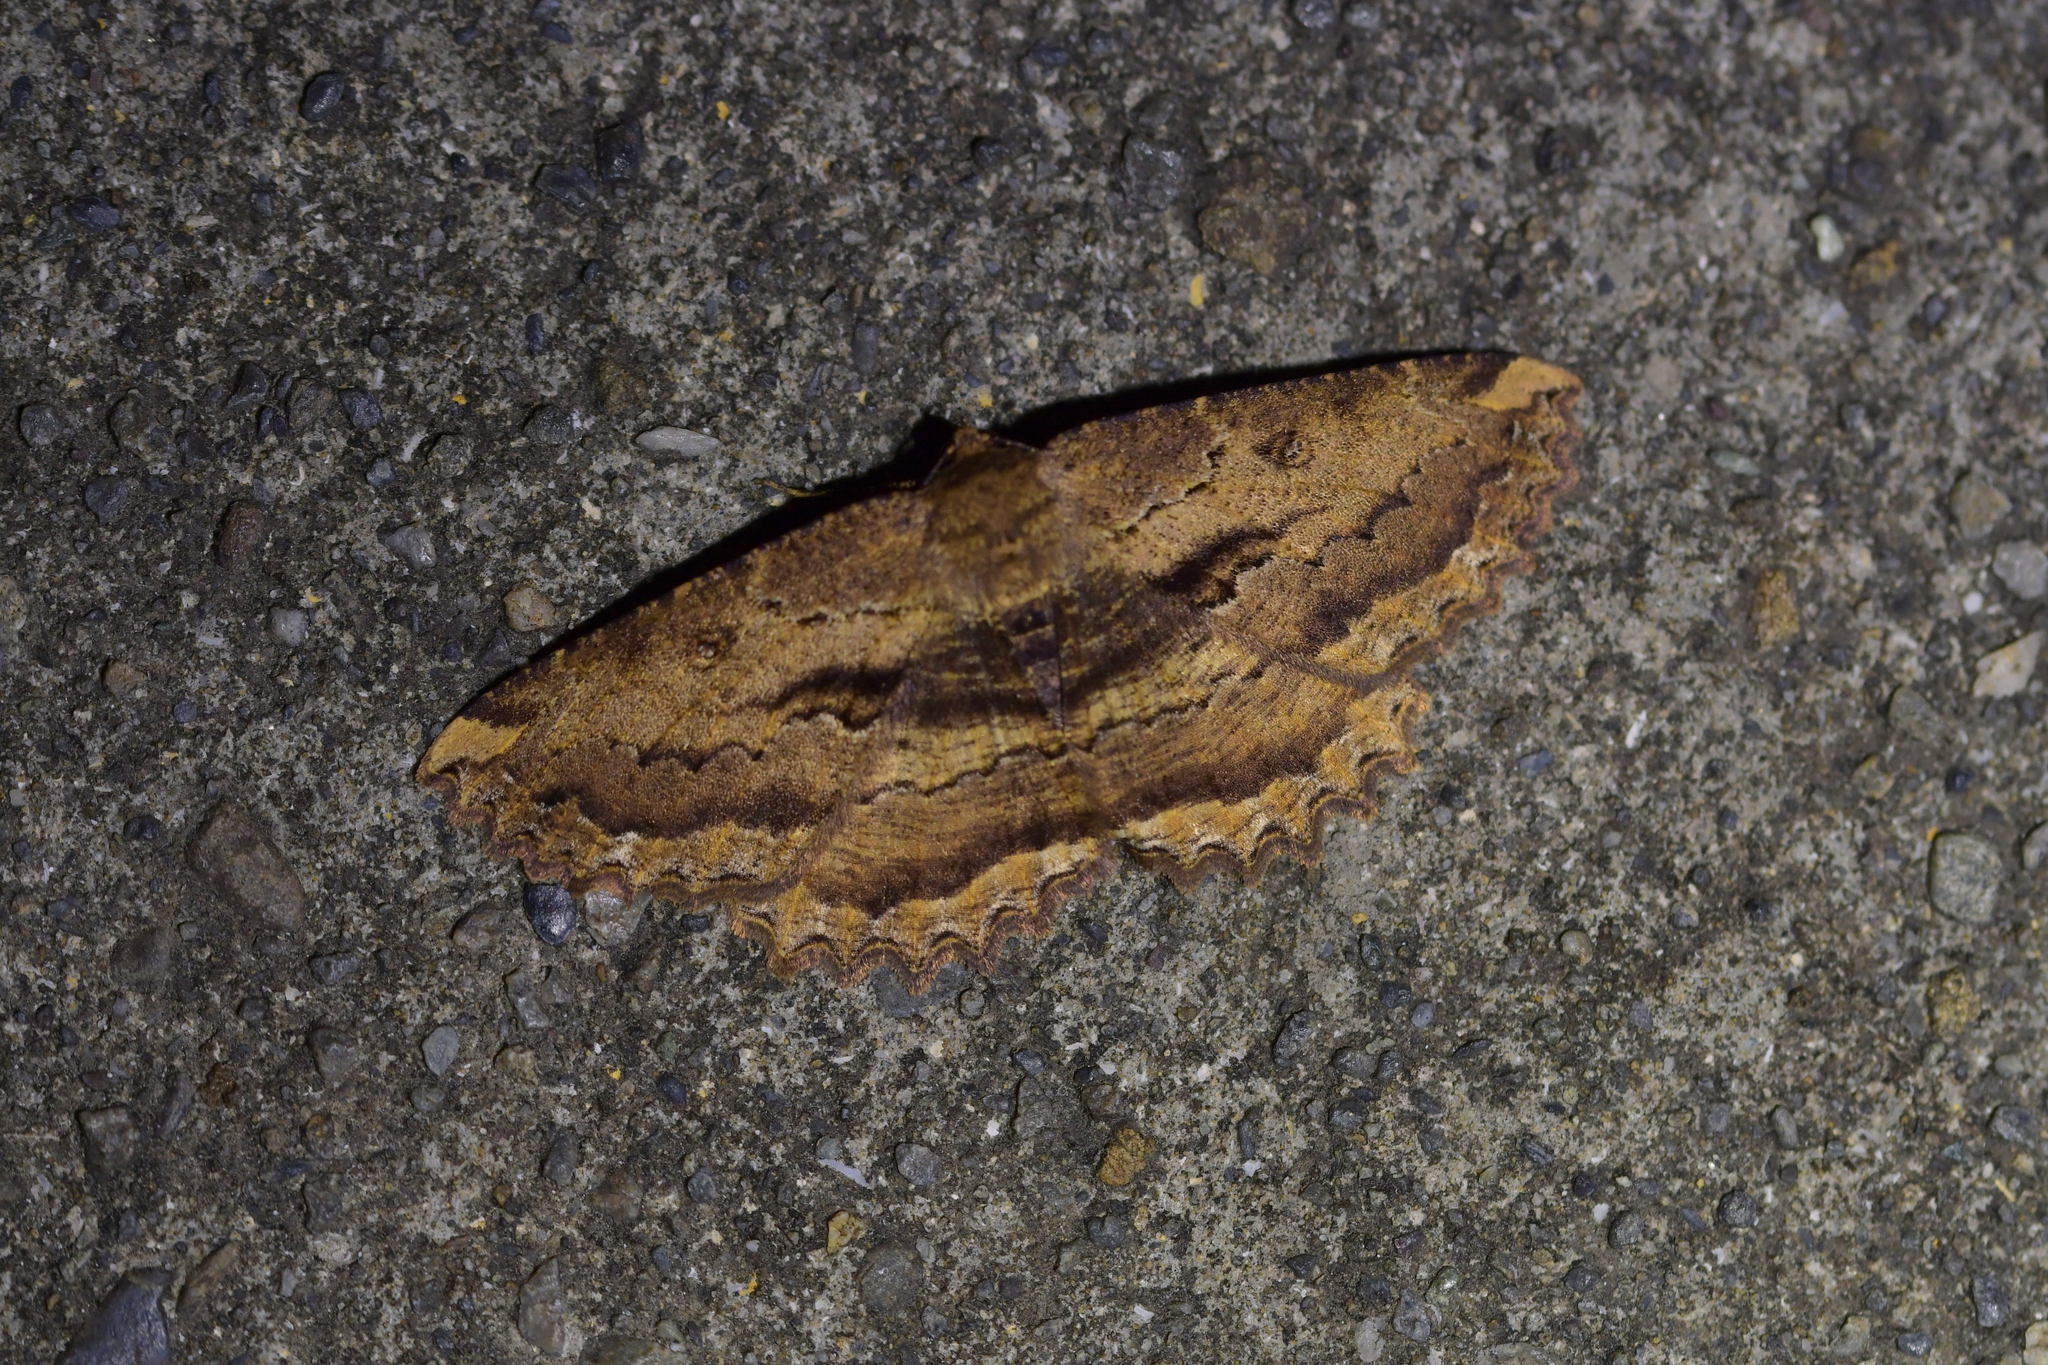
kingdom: Animalia
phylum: Arthropoda
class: Insecta
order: Lepidoptera
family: Geometridae
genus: Gellonia
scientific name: Gellonia dejectaria
